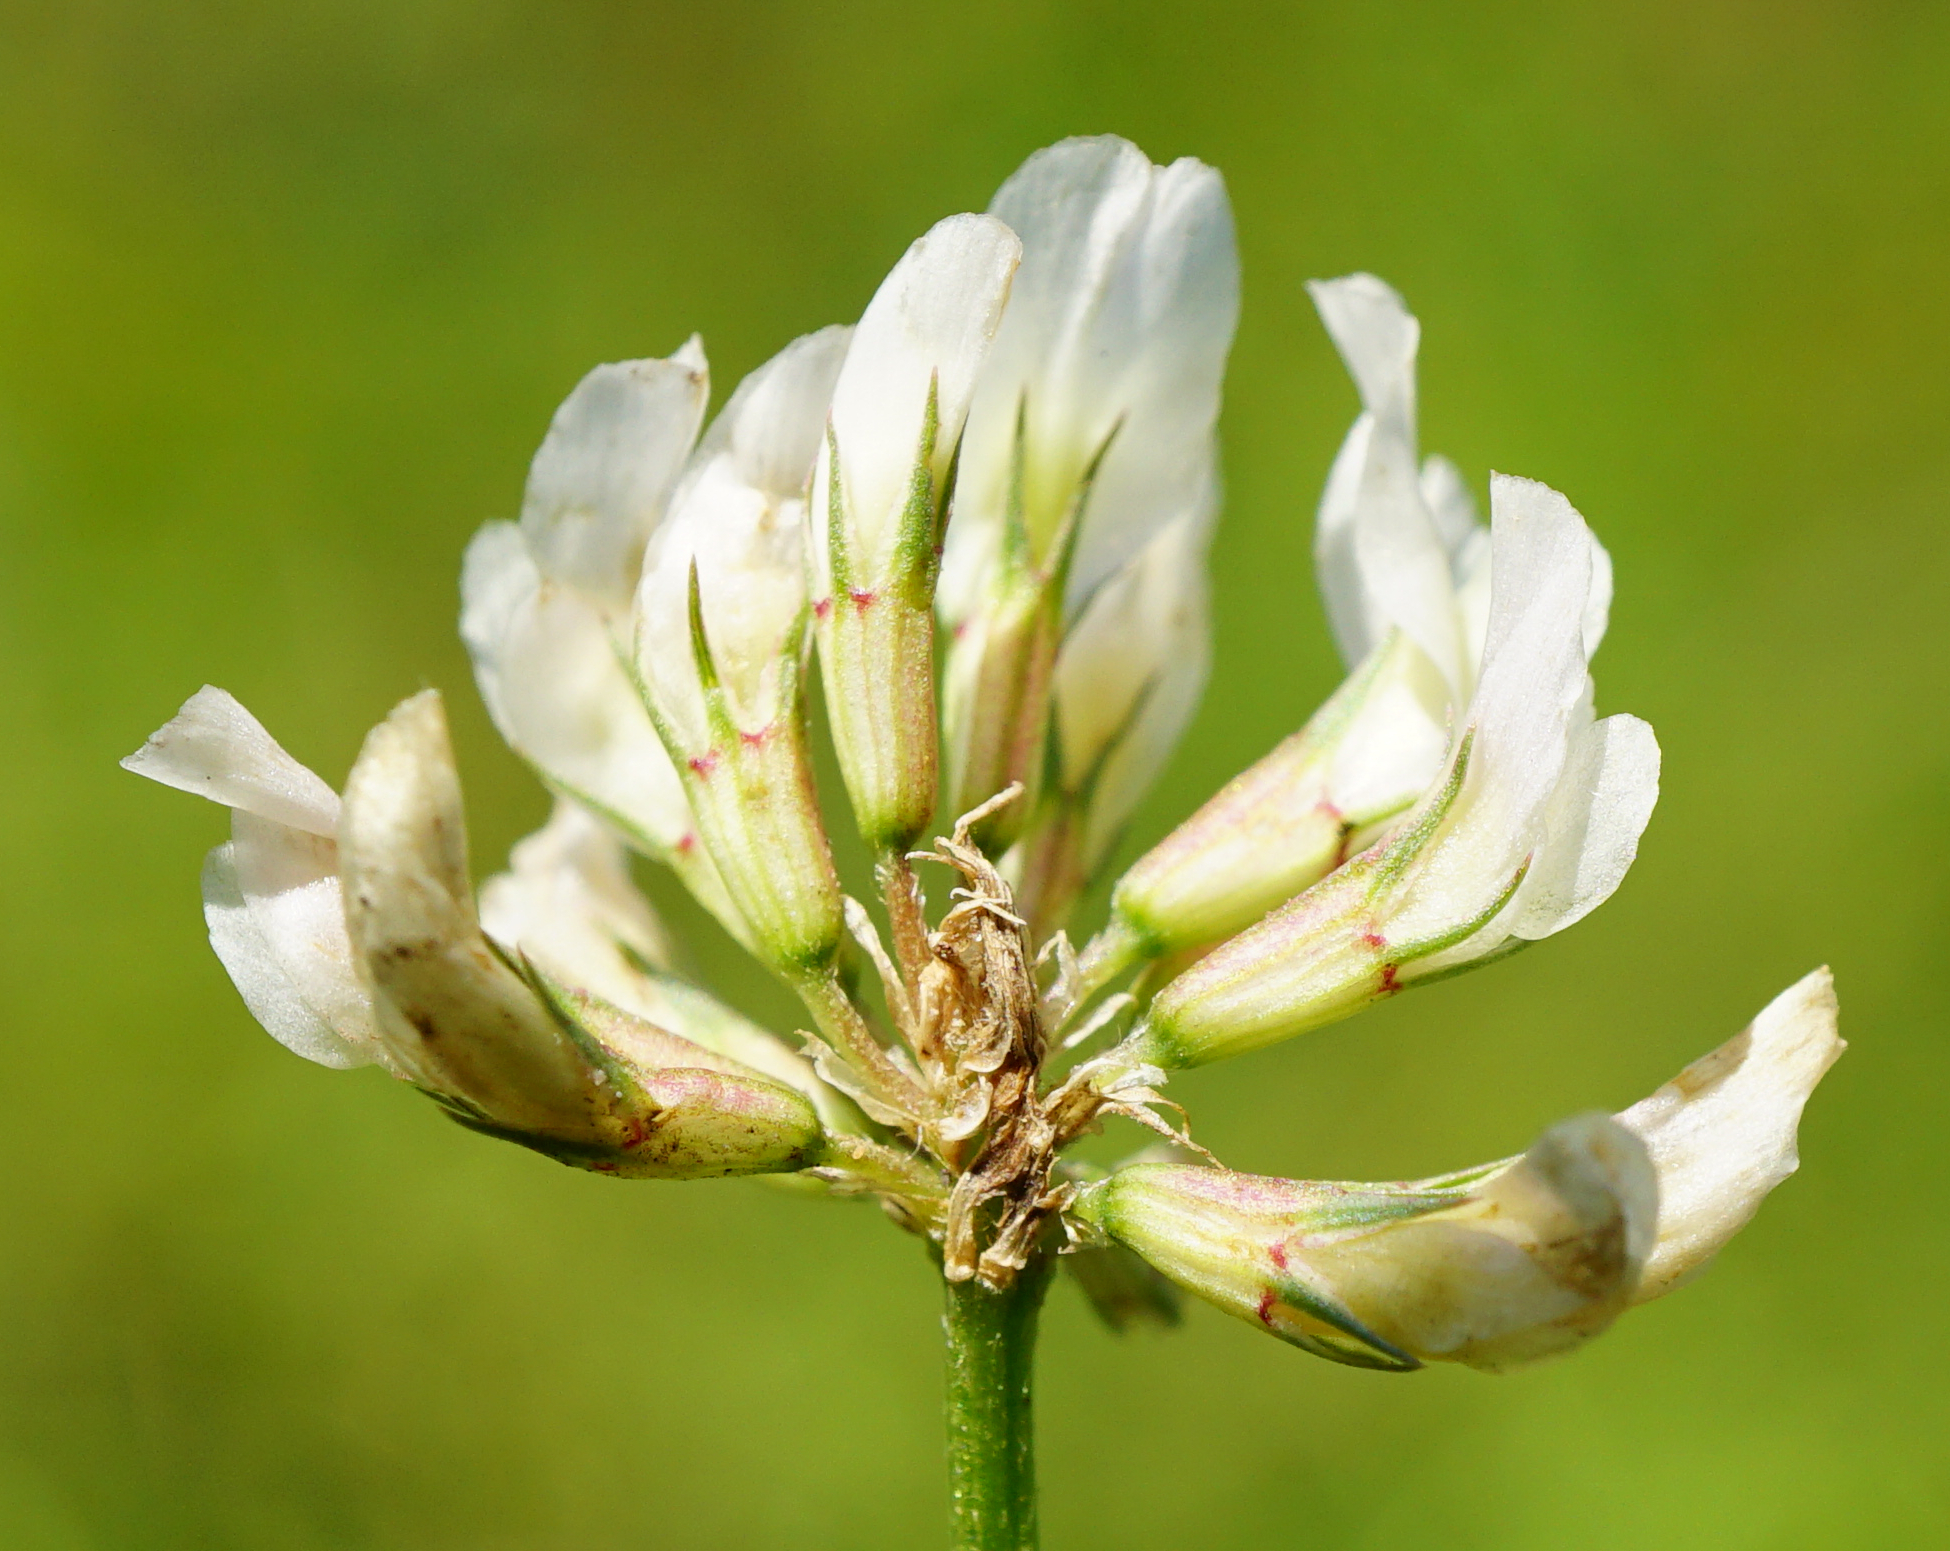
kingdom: Plantae
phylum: Tracheophyta
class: Magnoliopsida
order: Fabales
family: Fabaceae
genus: Trifolium
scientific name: Trifolium repens
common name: White clover
